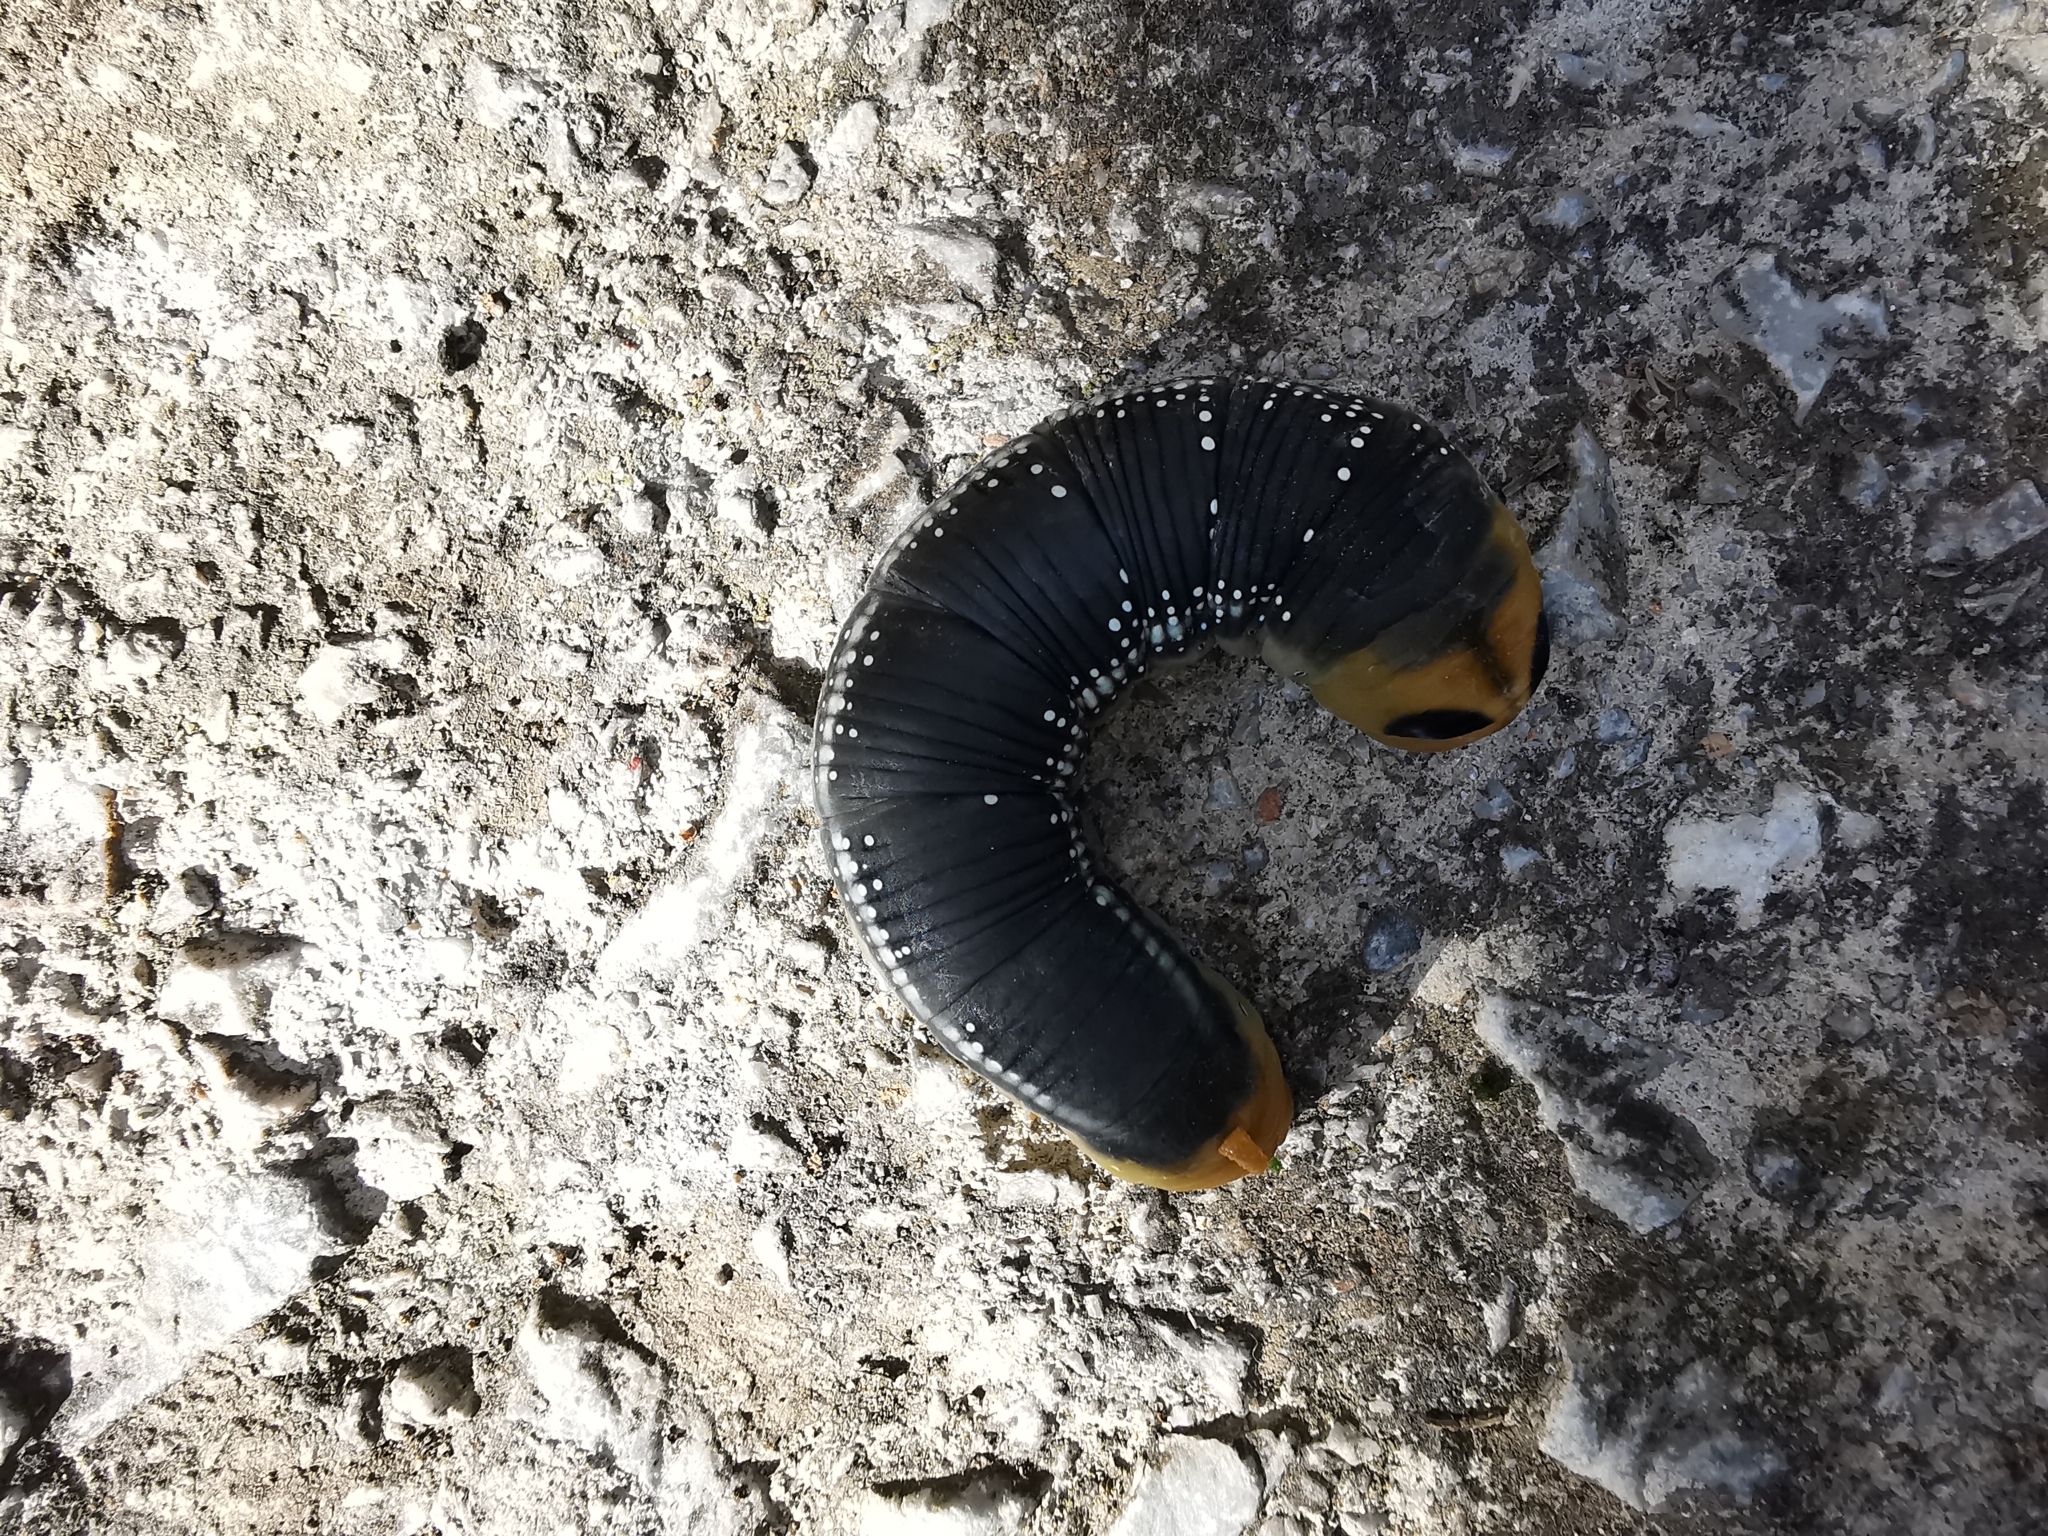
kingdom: Animalia
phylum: Arthropoda
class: Insecta
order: Lepidoptera
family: Sphingidae
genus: Daphnis
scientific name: Daphnis nerii
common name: Oleander hawk-moth
